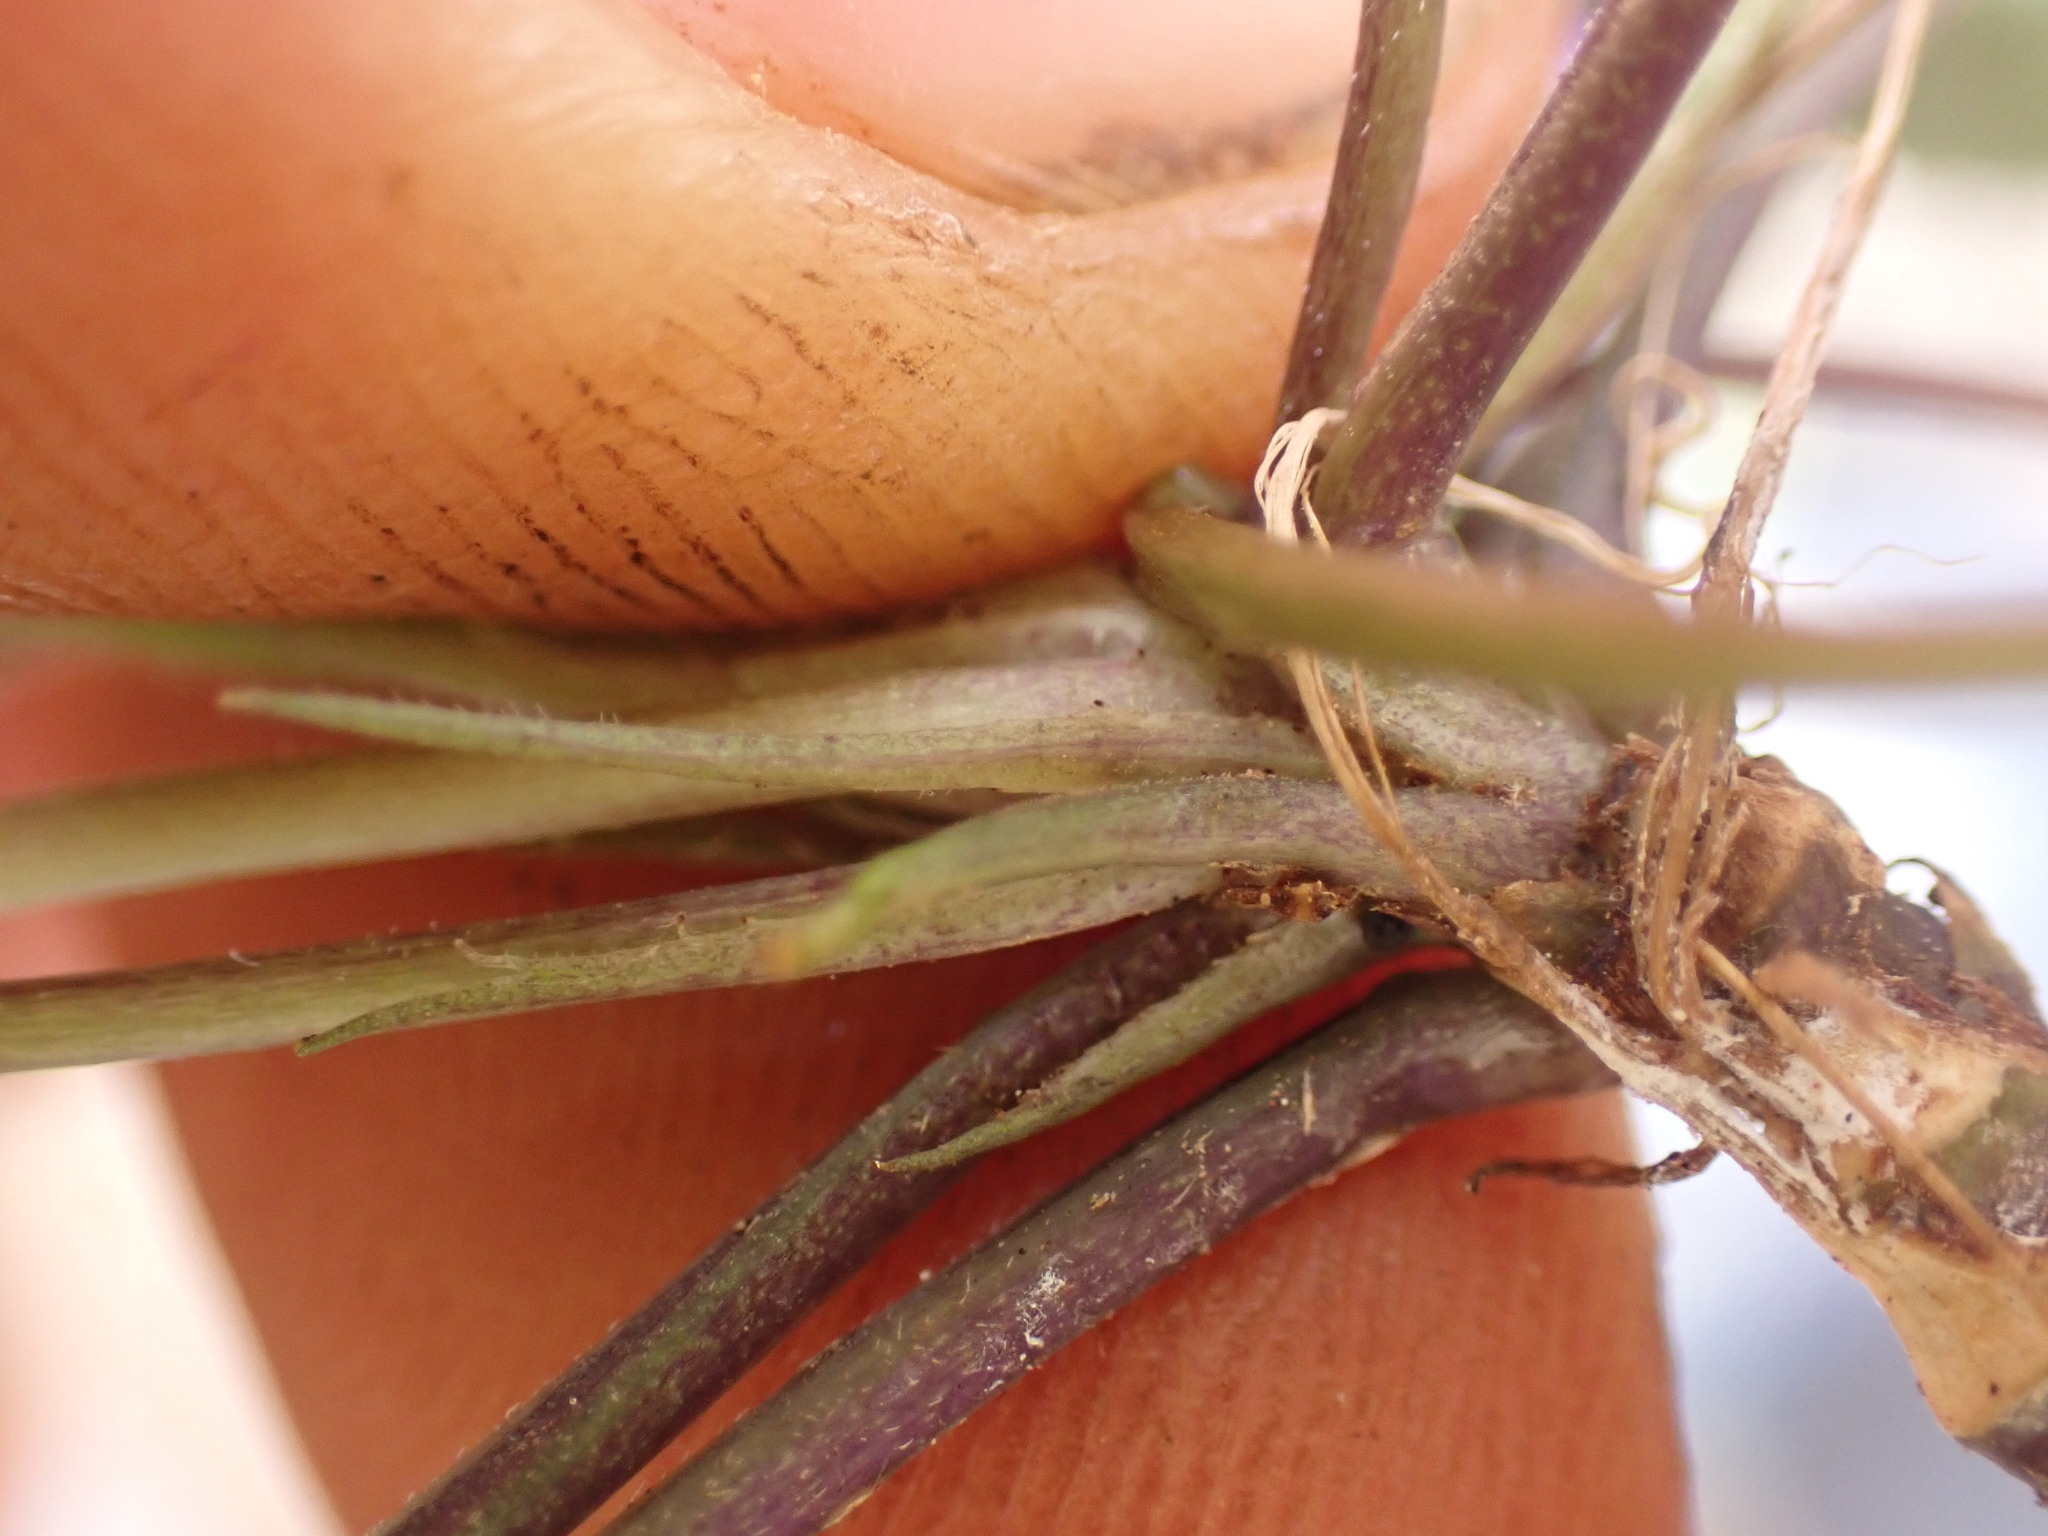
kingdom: Plantae
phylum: Tracheophyta
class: Magnoliopsida
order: Malpighiales
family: Violaceae
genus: Viola
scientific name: Viola alba
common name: White violet
